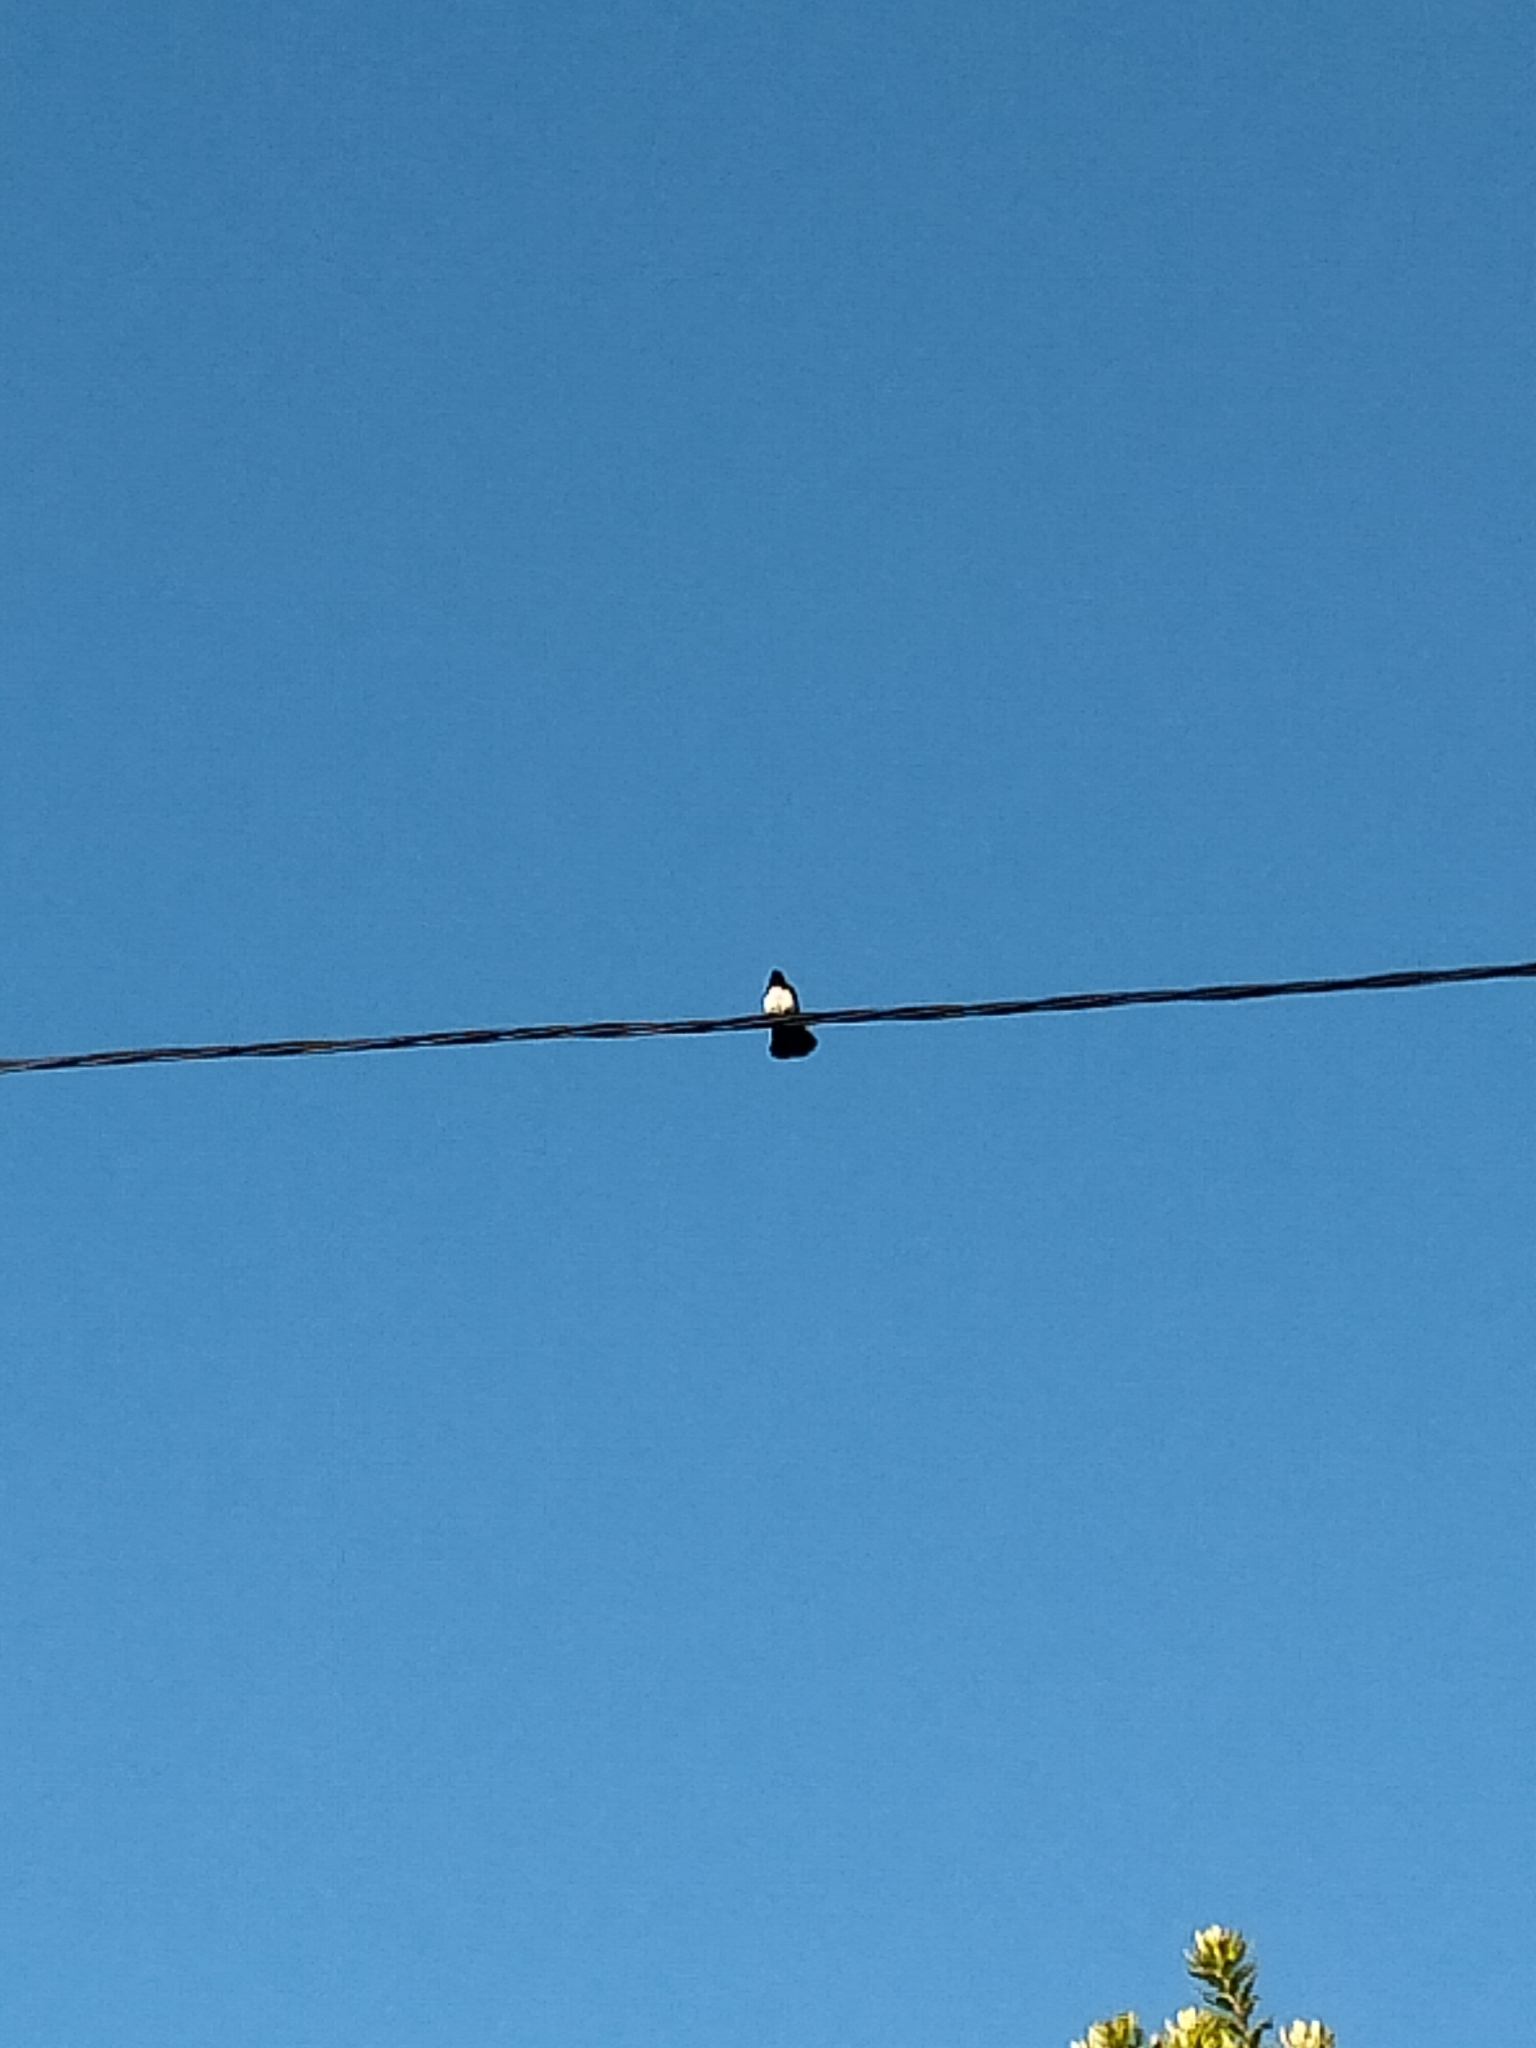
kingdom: Animalia
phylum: Chordata
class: Aves
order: Passeriformes
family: Rhipiduridae
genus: Rhipidura
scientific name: Rhipidura leucophrys
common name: Willie wagtail
